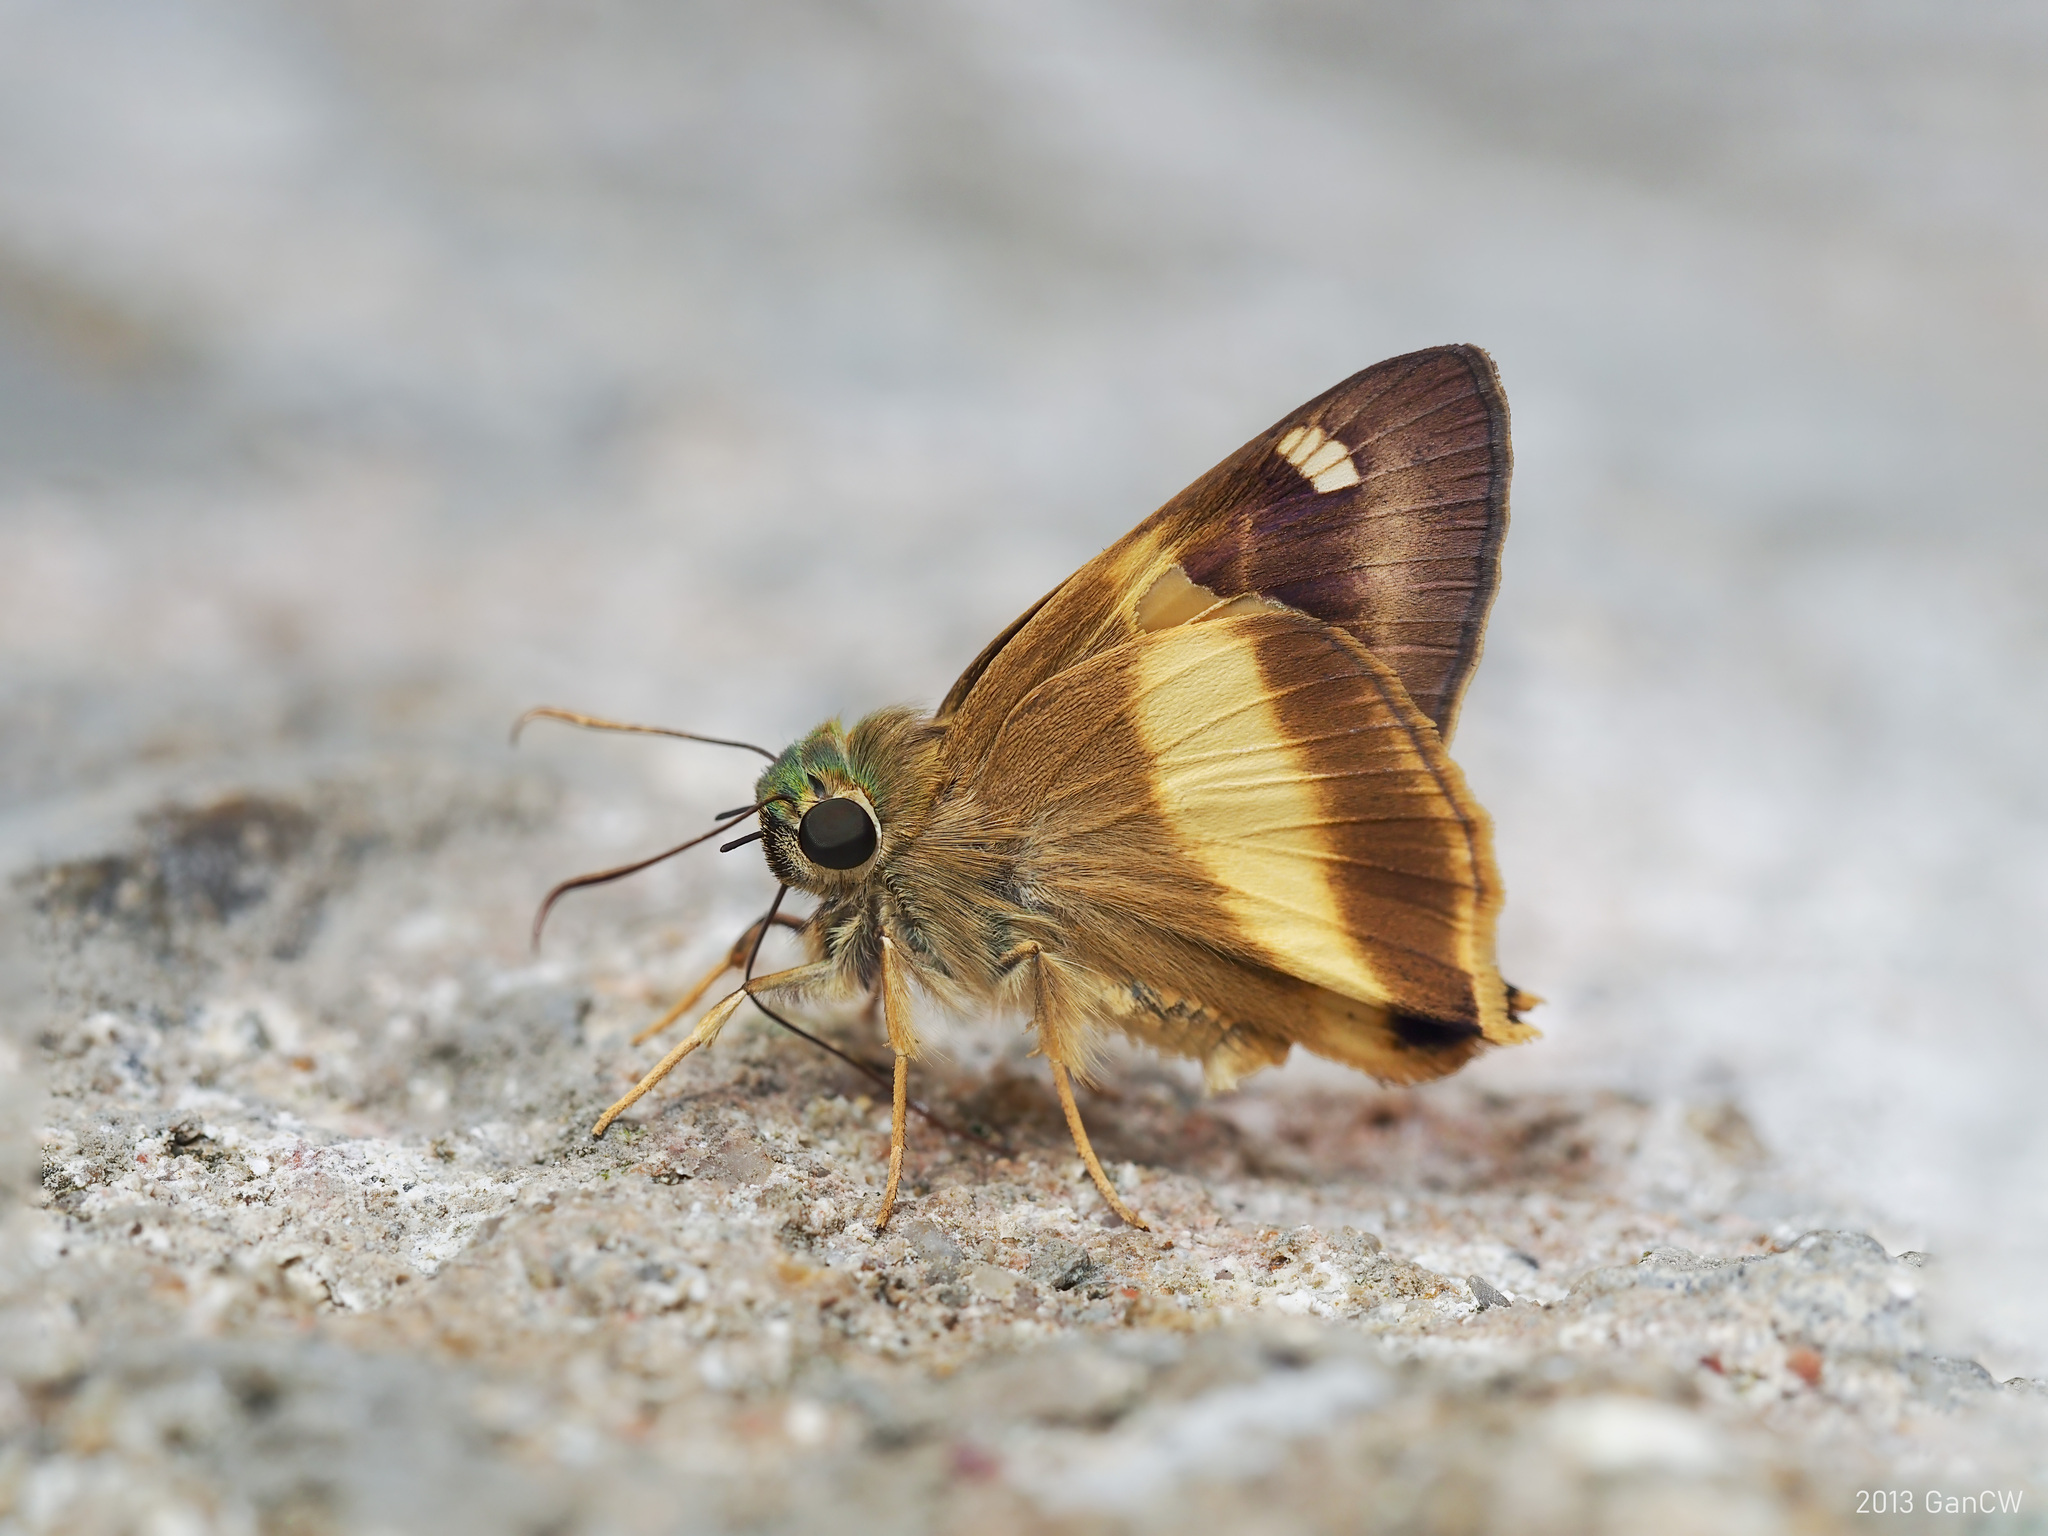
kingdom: Animalia
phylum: Arthropoda
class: Insecta
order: Lepidoptera
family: Hesperiidae
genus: Hasora
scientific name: Hasora schoenherr
